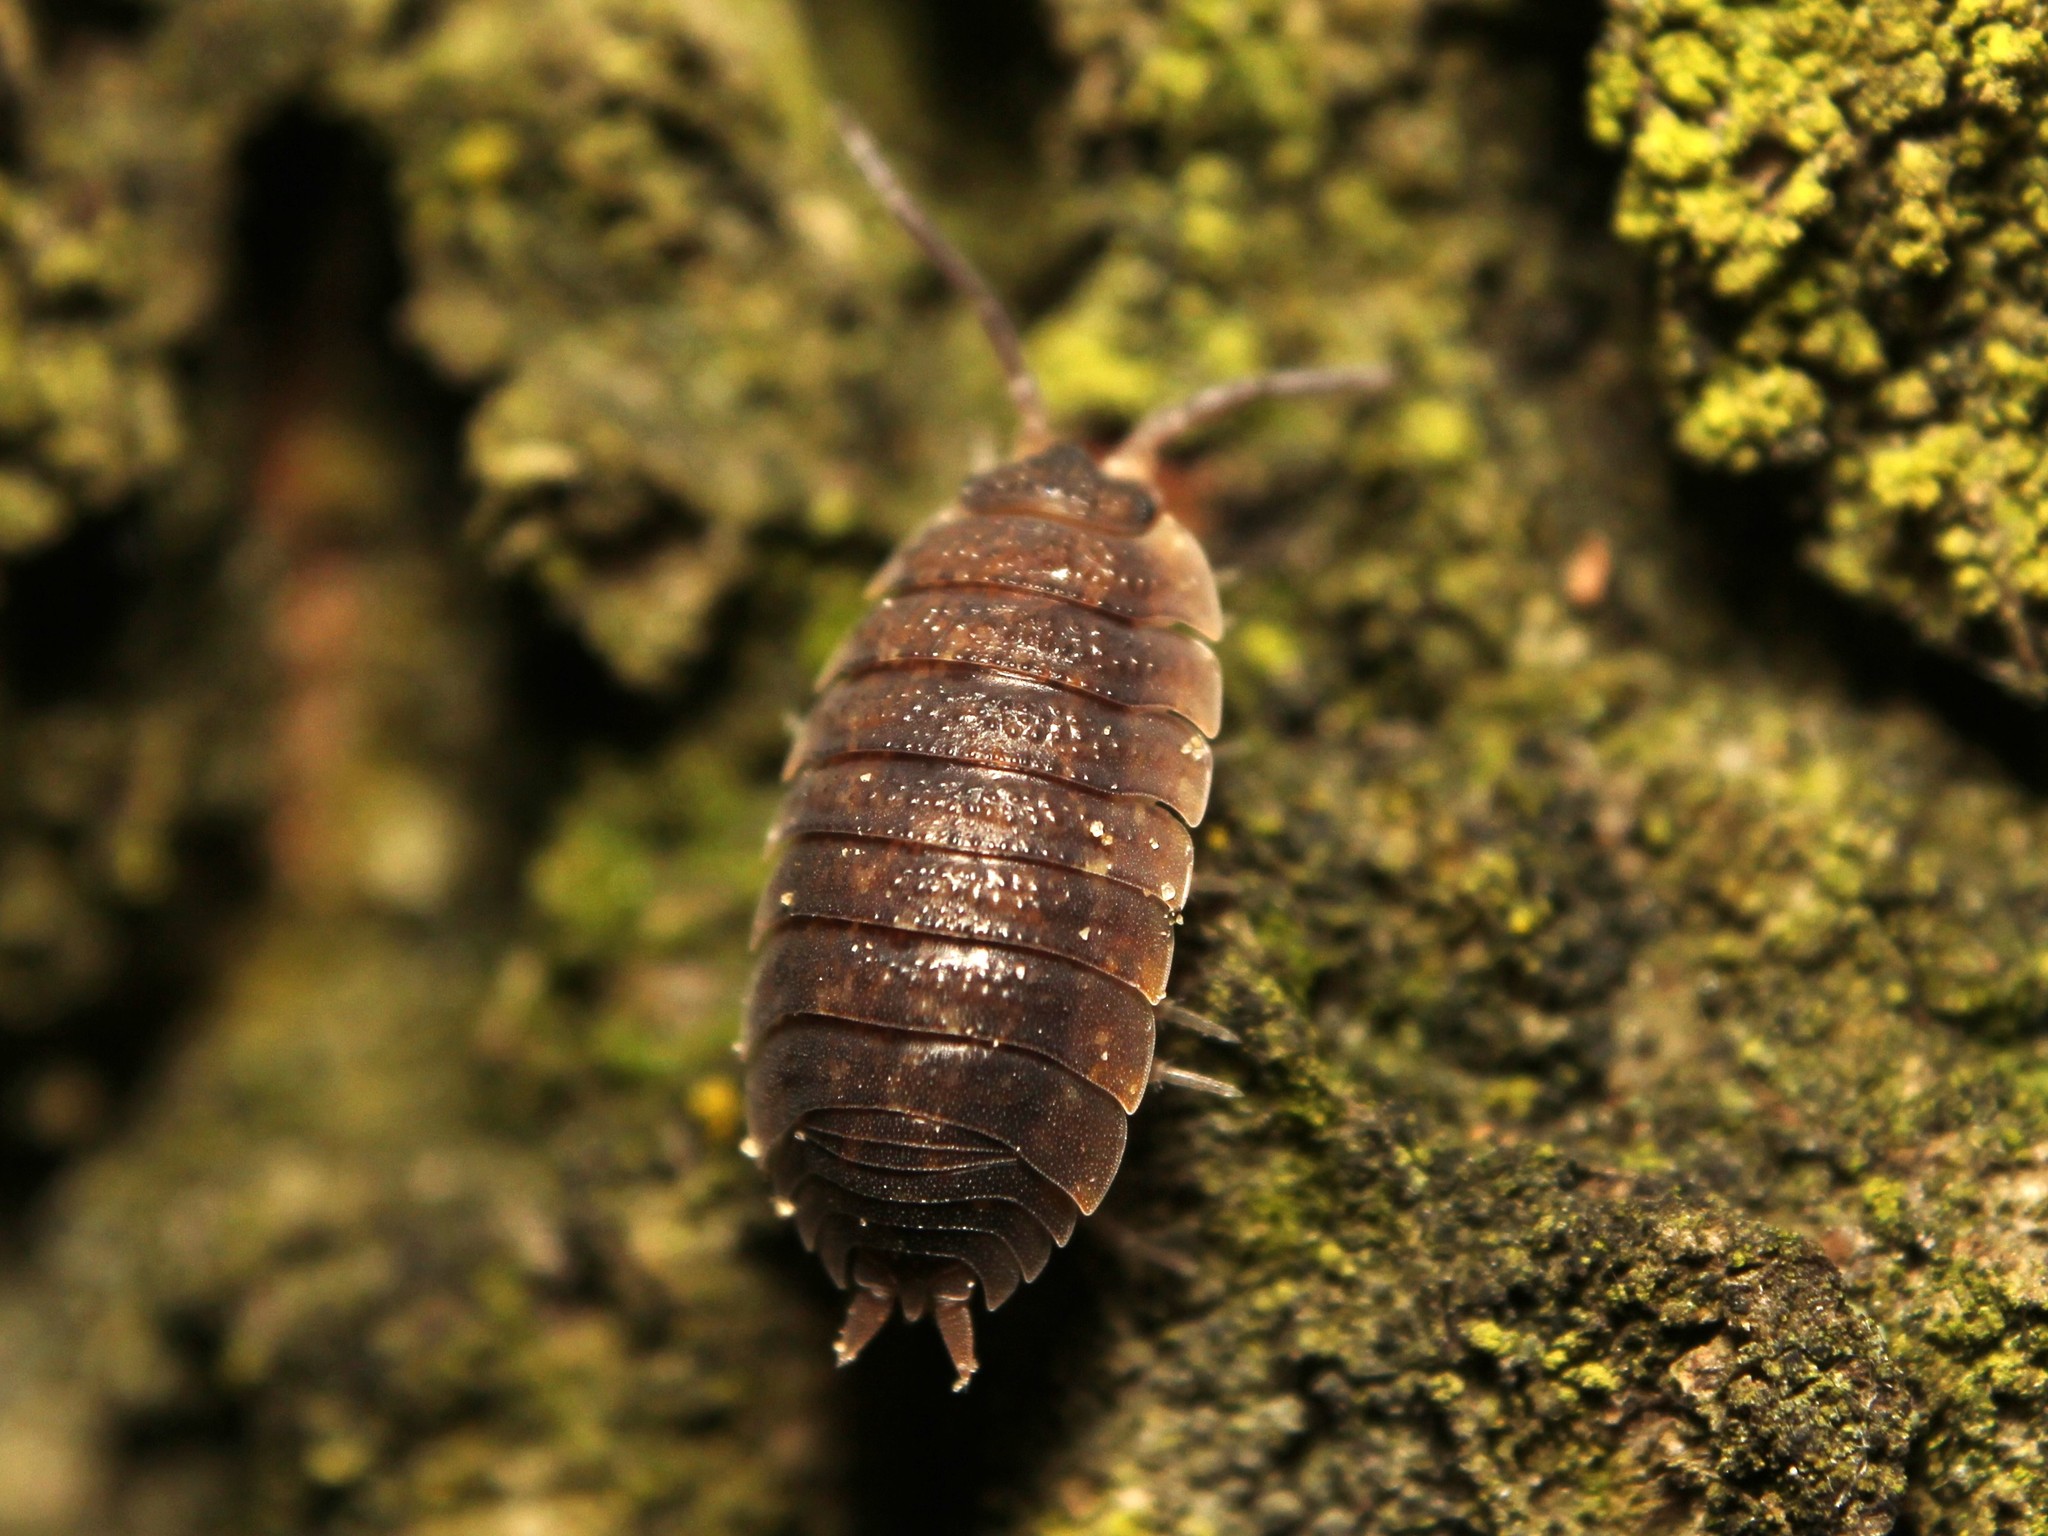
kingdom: Animalia
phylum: Arthropoda
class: Malacostraca
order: Isopoda
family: Porcellionidae
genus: Porcellio
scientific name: Porcellio scaber
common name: Common rough woodlouse
